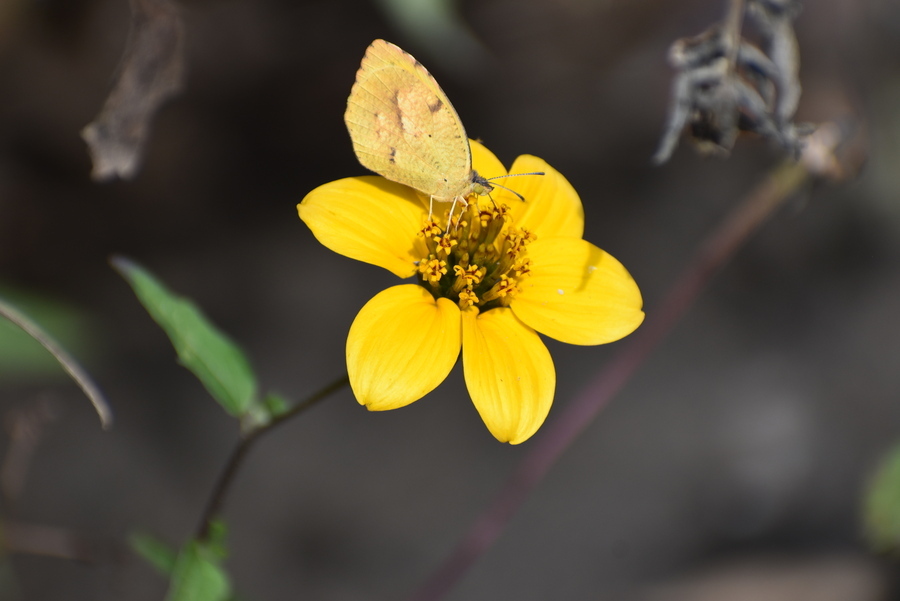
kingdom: Animalia
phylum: Arthropoda
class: Insecta
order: Lepidoptera
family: Pieridae
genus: Abaeis
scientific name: Abaeis nicippe
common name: Sleepy orange
